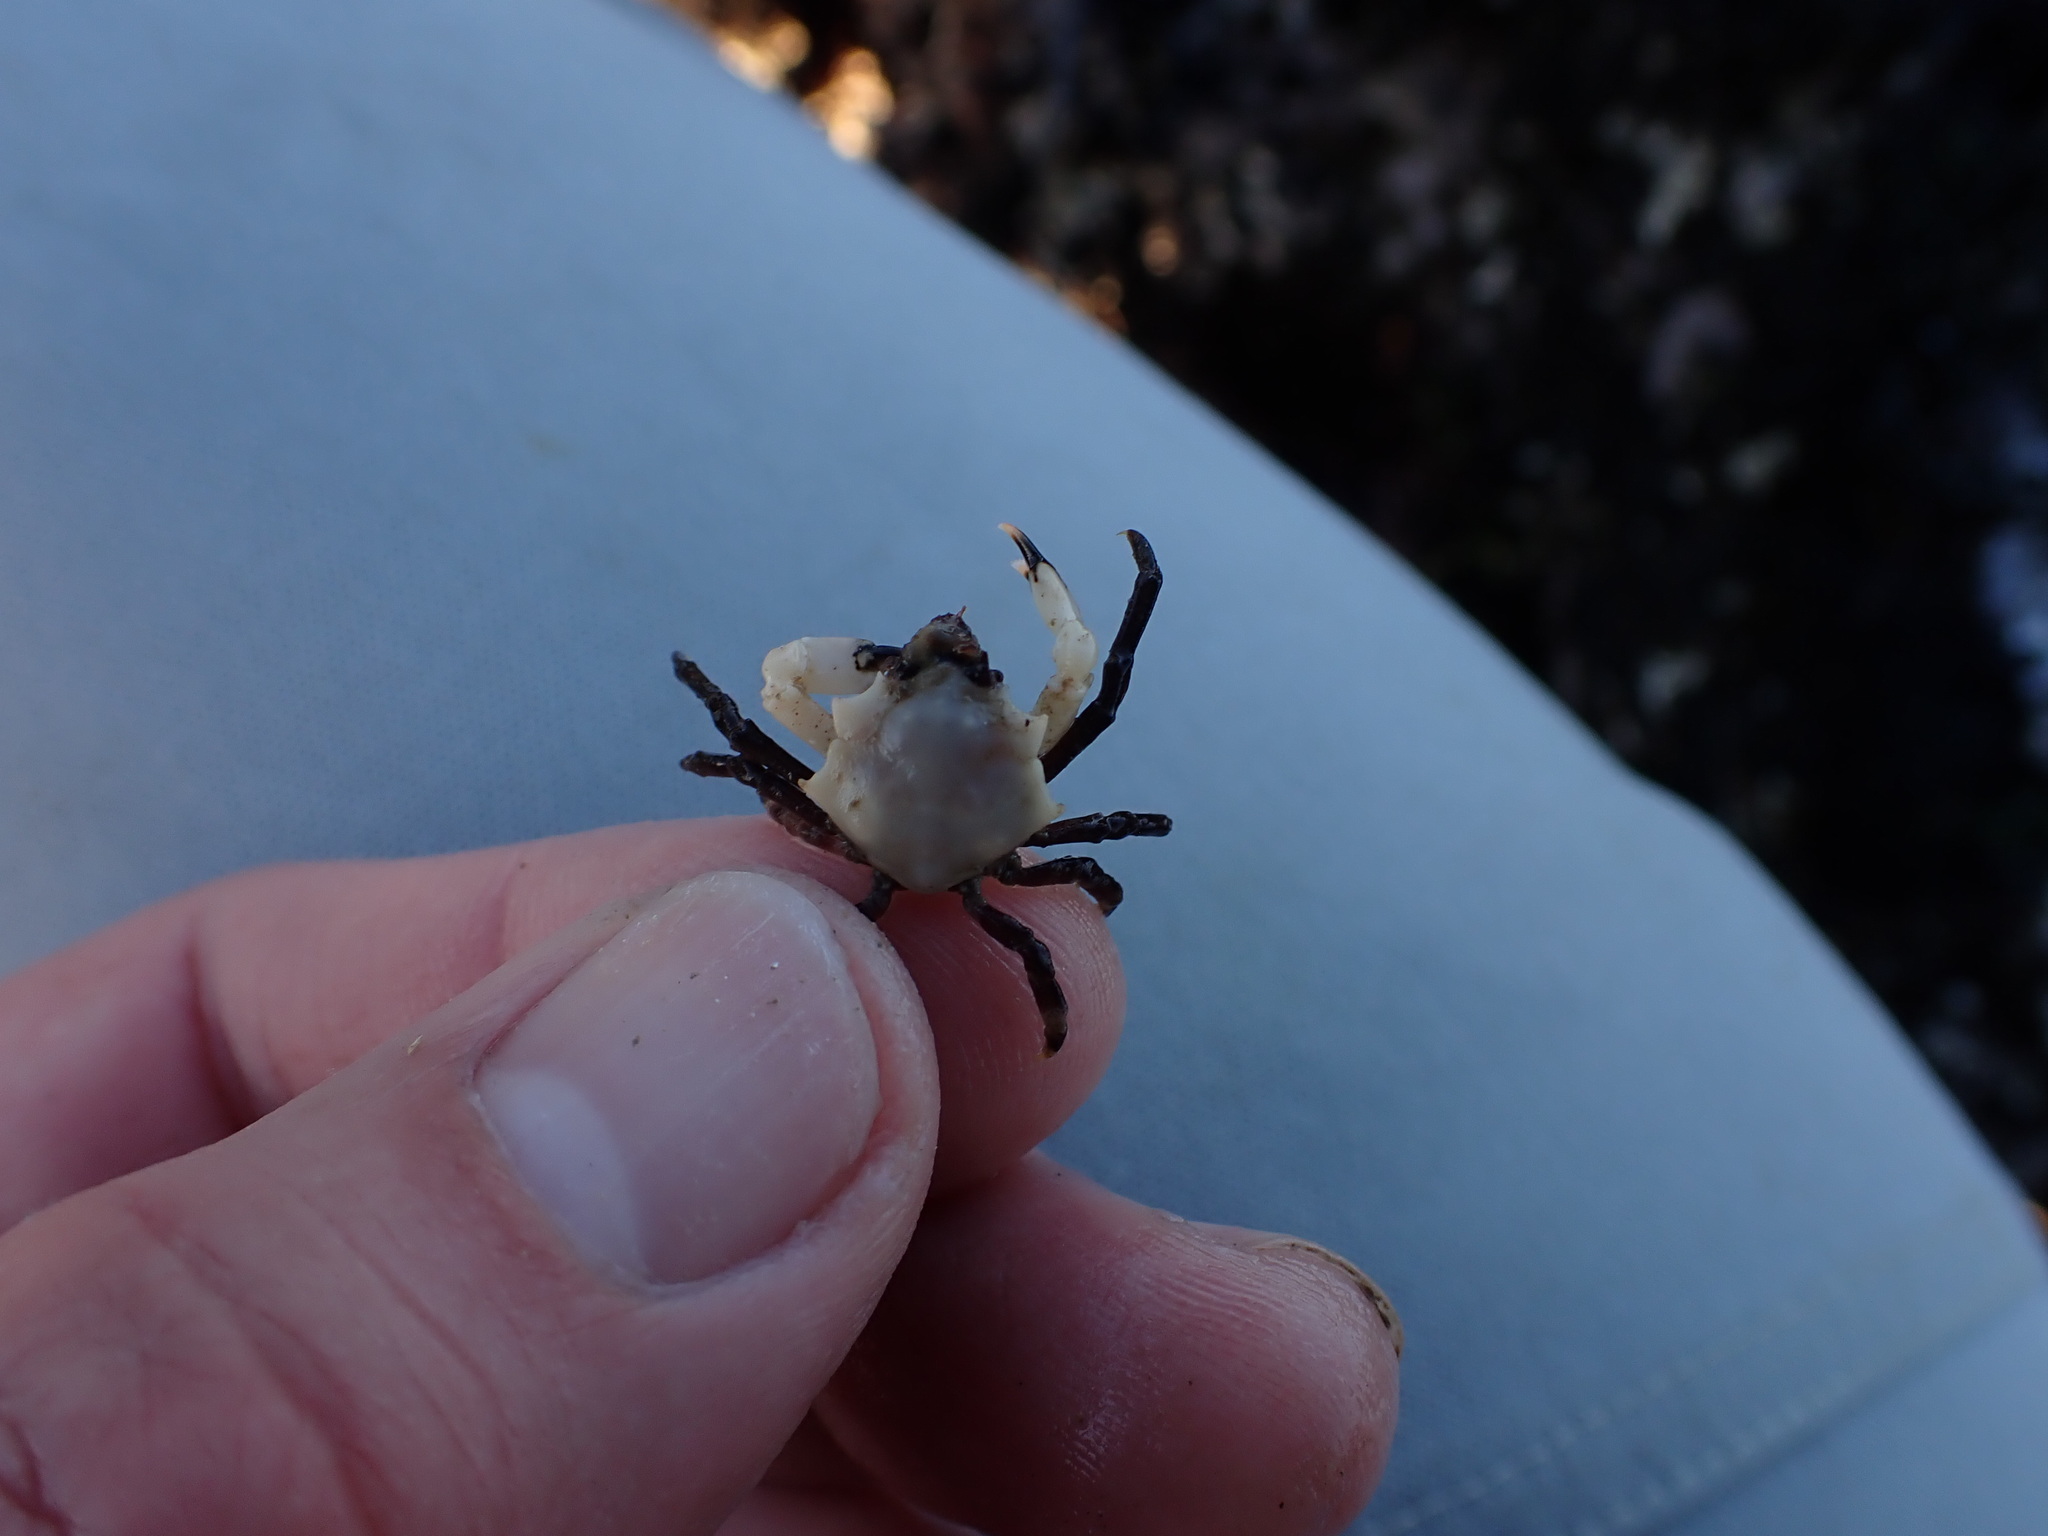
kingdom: Animalia
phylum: Arthropoda
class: Malacostraca
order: Decapoda
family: Epialtidae
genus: Pugettia
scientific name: Pugettia foliata
